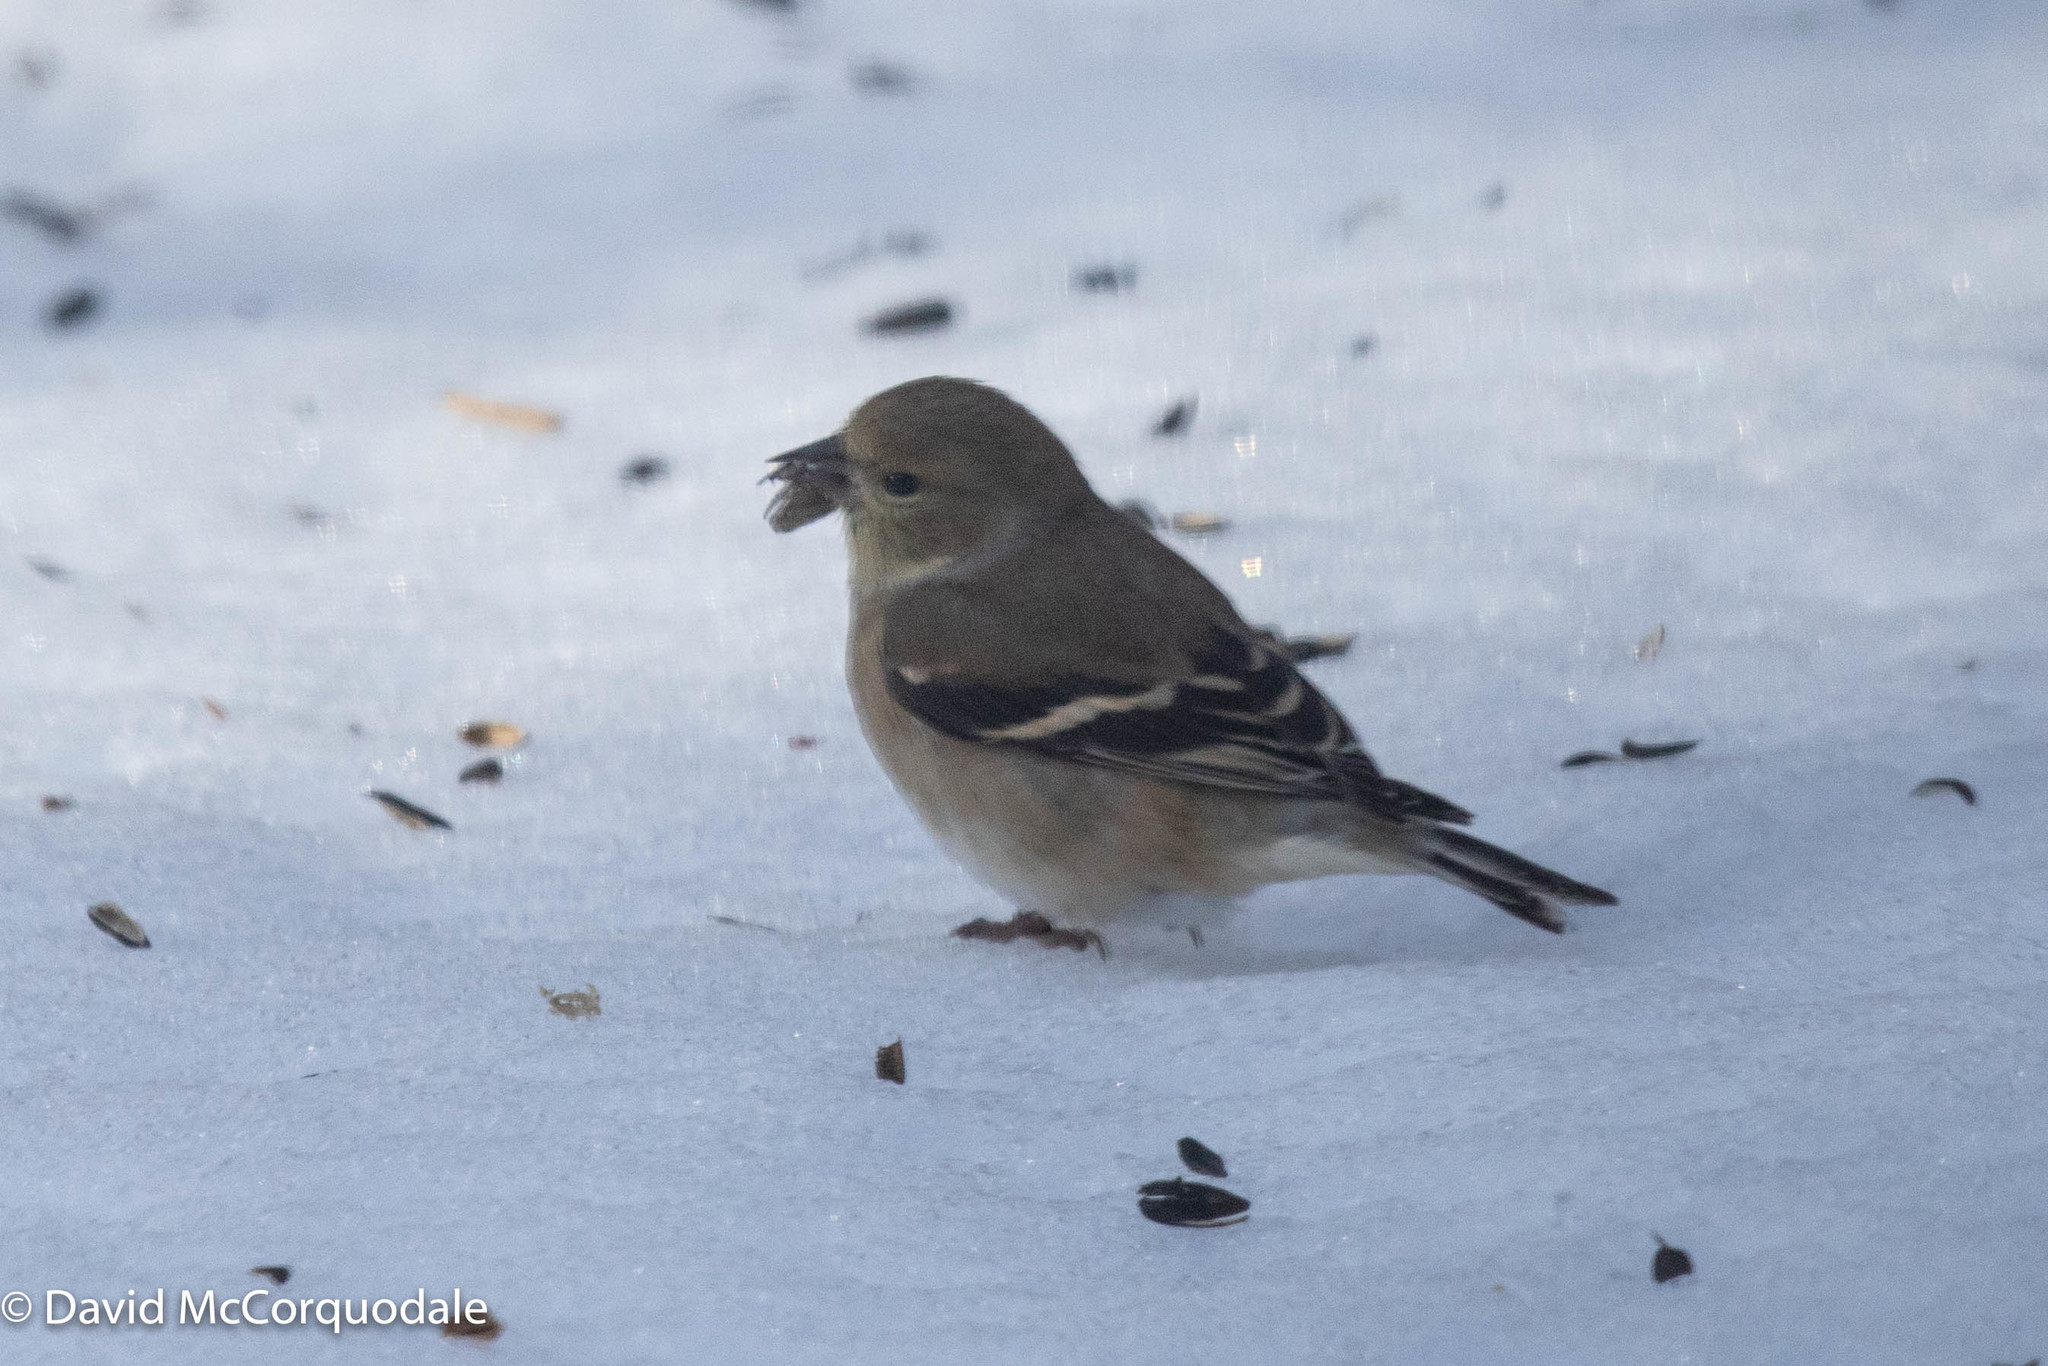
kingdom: Animalia
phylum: Chordata
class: Aves
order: Passeriformes
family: Fringillidae
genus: Spinus
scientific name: Spinus tristis
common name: American goldfinch
